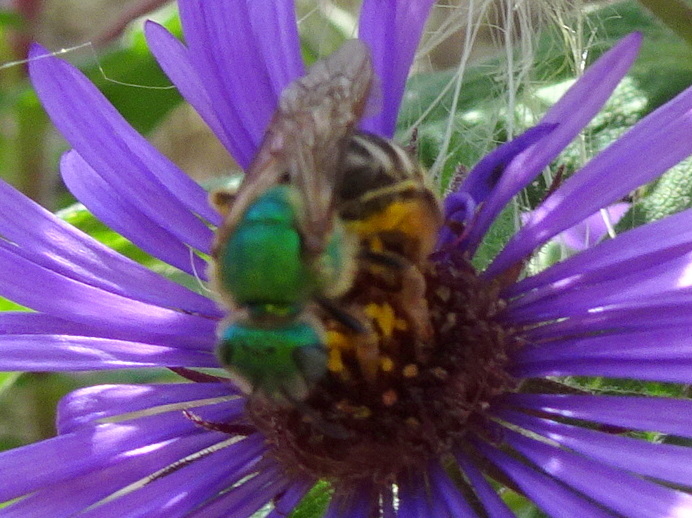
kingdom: Animalia
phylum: Arthropoda
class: Insecta
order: Hymenoptera
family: Halictidae
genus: Agapostemon
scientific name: Agapostemon virescens
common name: Bicolored striped sweat bee
